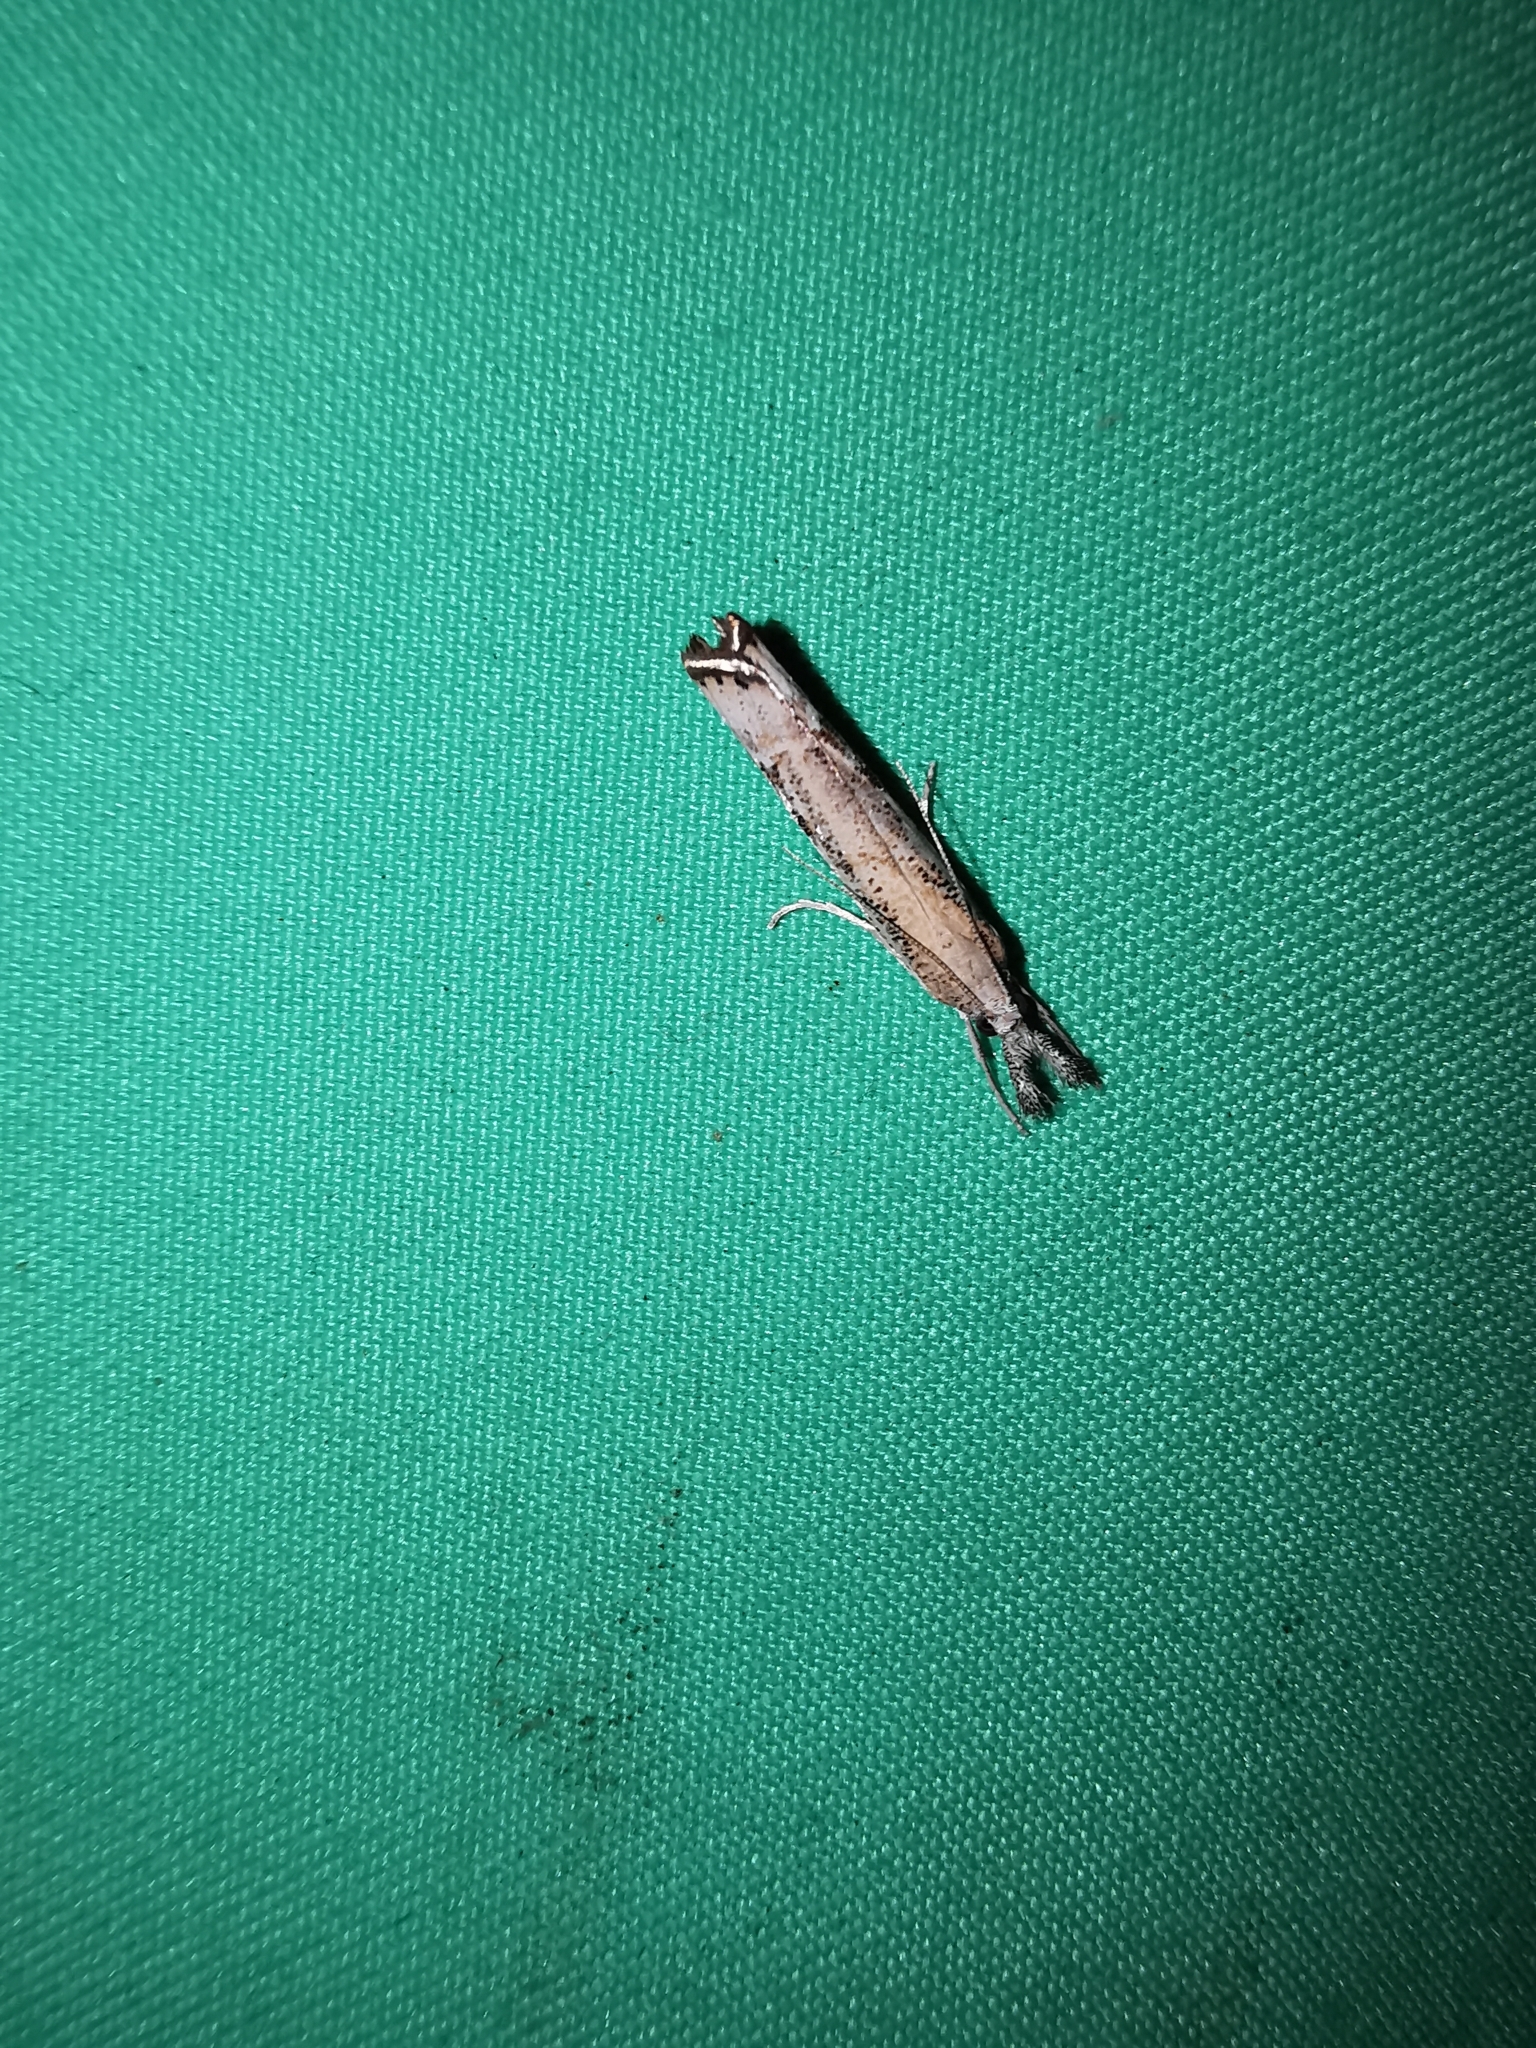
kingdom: Animalia
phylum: Arthropoda
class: Insecta
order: Lepidoptera
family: Crambidae
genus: Agriphila
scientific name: Agriphila tolli
